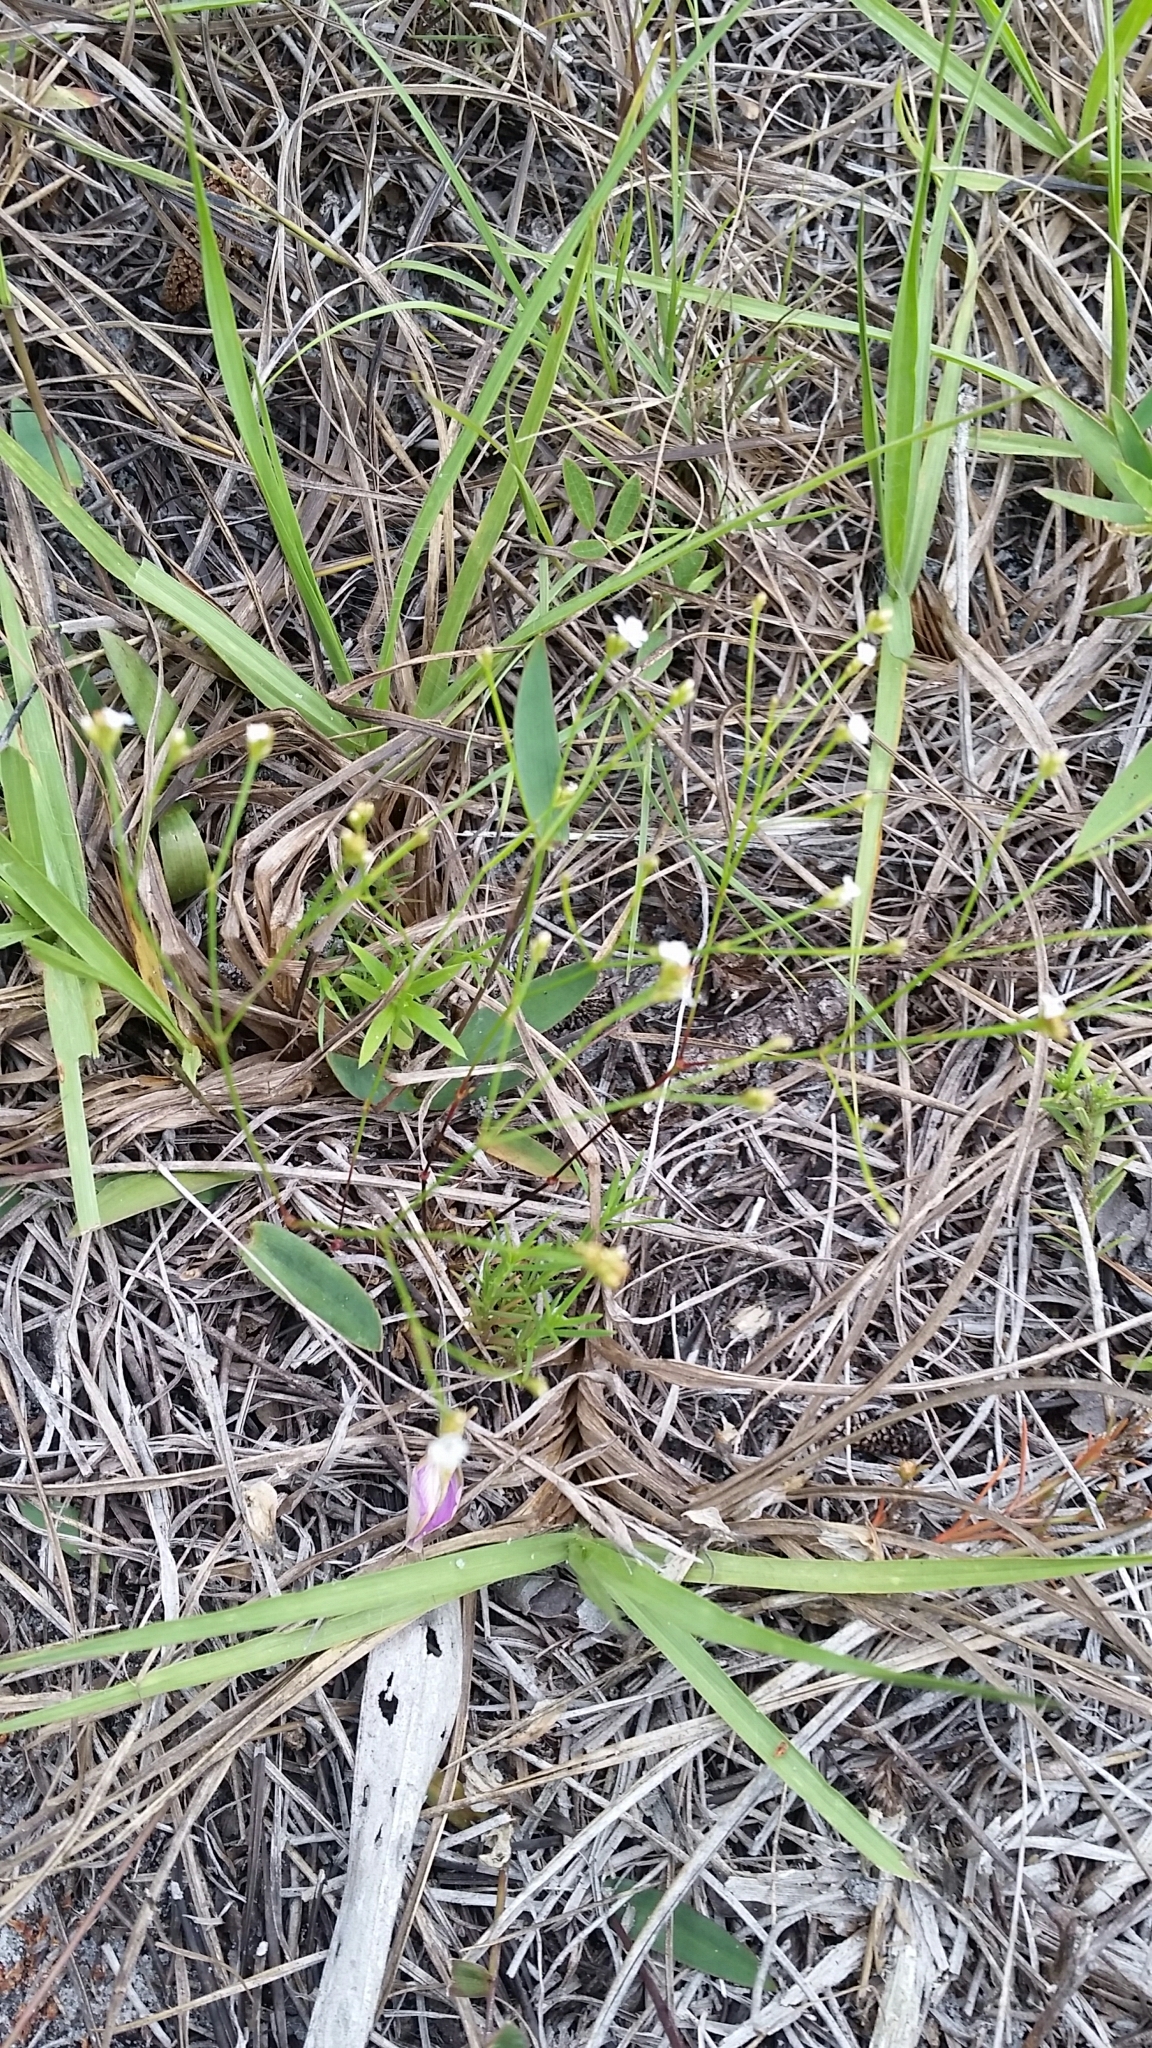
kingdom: Plantae
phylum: Tracheophyta
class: Magnoliopsida
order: Caryophyllales
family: Caryophyllaceae
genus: Stipulicida
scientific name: Stipulicida setacea
